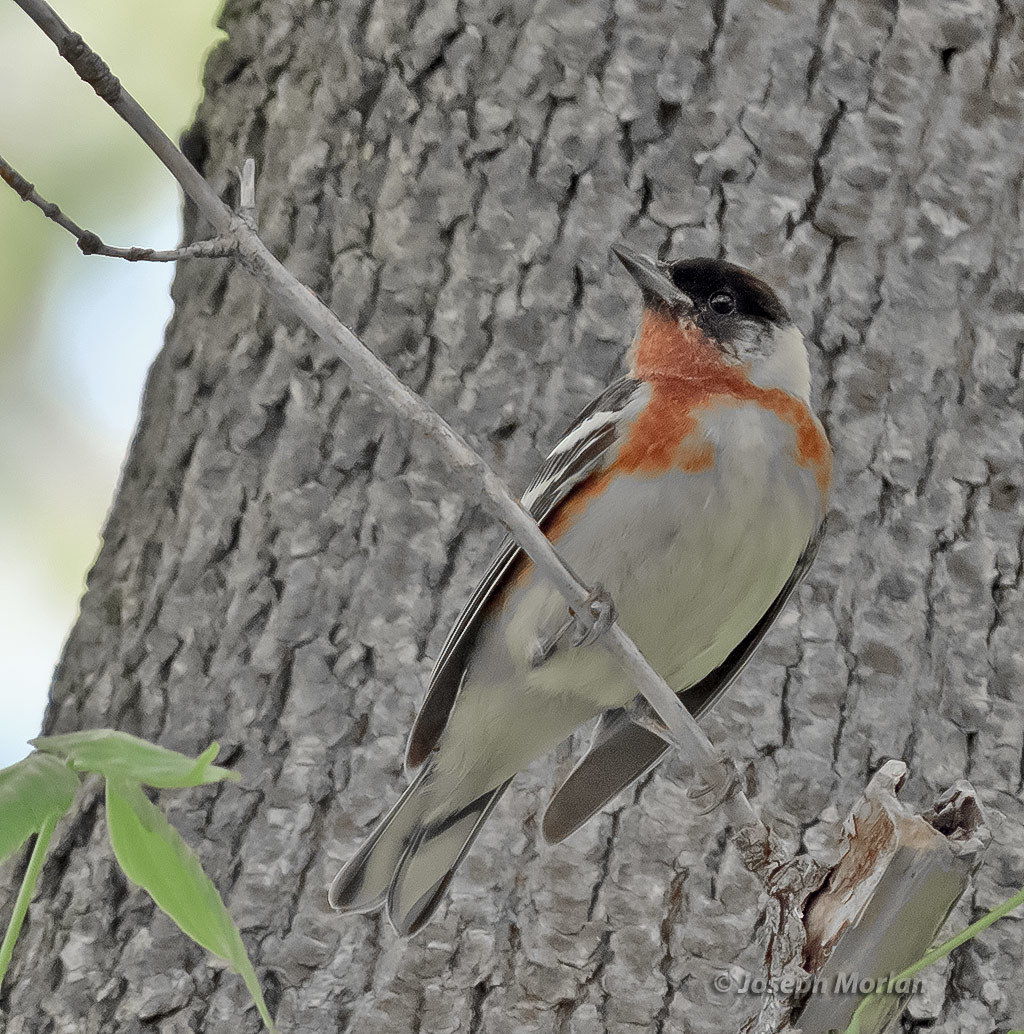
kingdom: Animalia
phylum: Chordata
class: Aves
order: Passeriformes
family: Parulidae
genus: Setophaga
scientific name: Setophaga castanea
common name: Bay-breasted warbler
